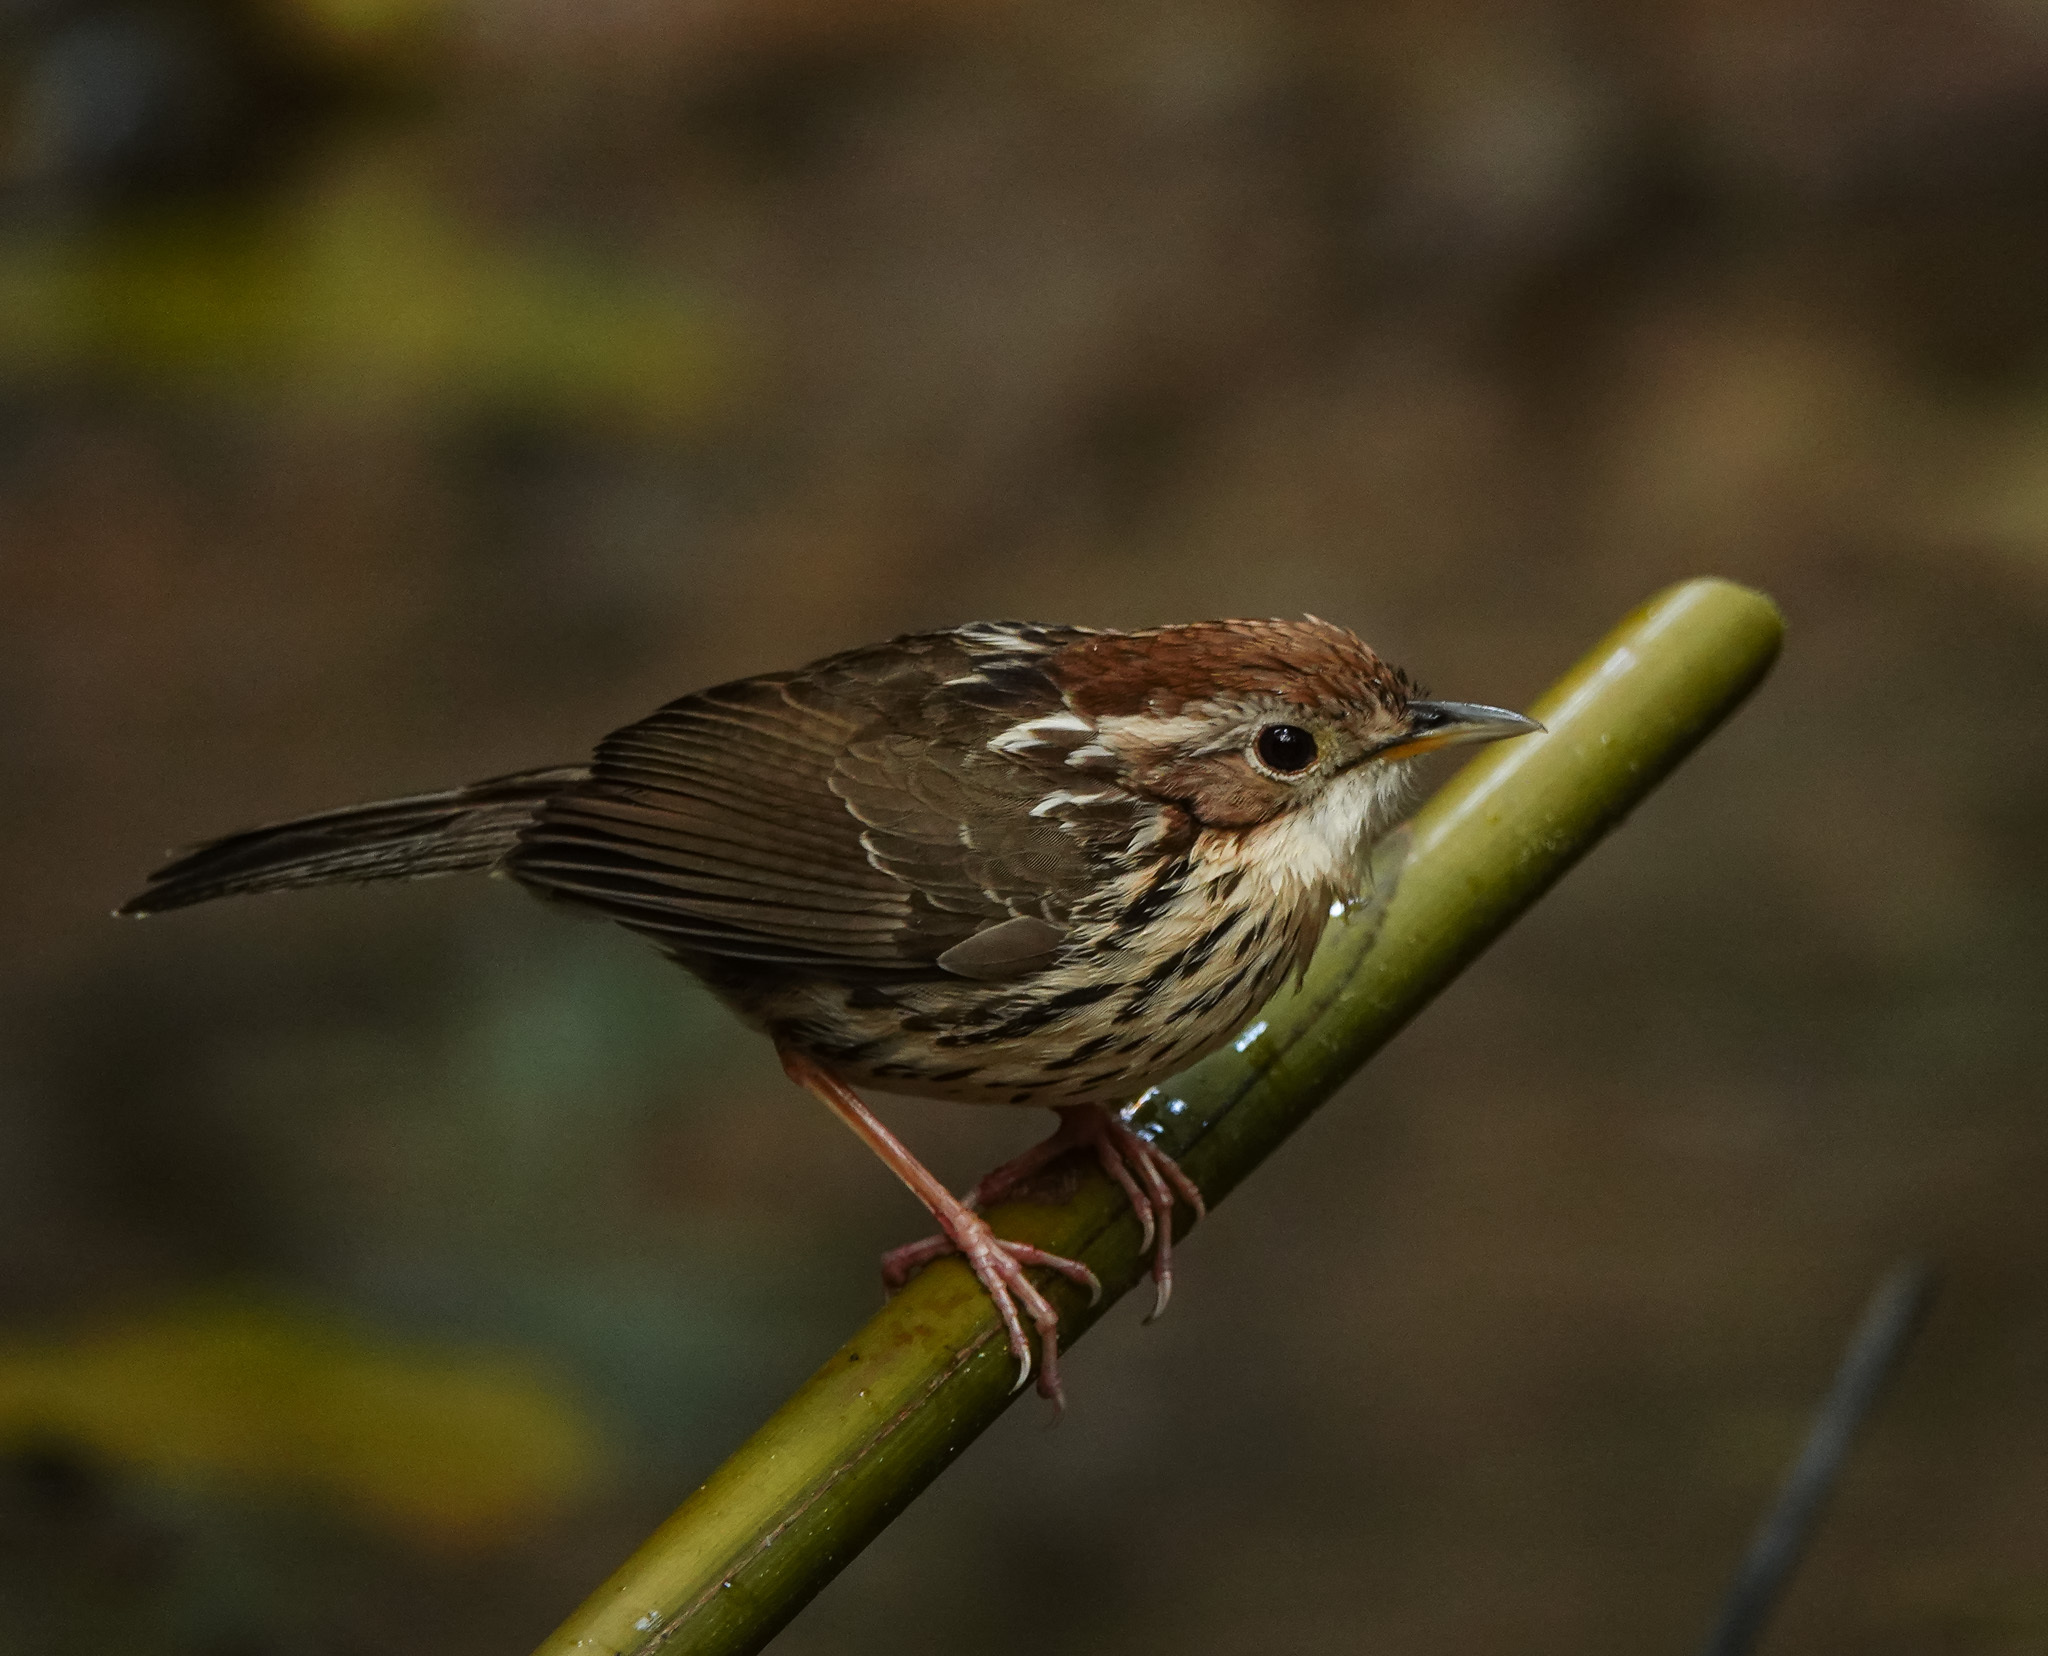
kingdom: Animalia
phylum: Chordata
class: Aves
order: Passeriformes
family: Pellorneidae
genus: Pellorneum
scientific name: Pellorneum ruficeps
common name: Puff-throated babbler
